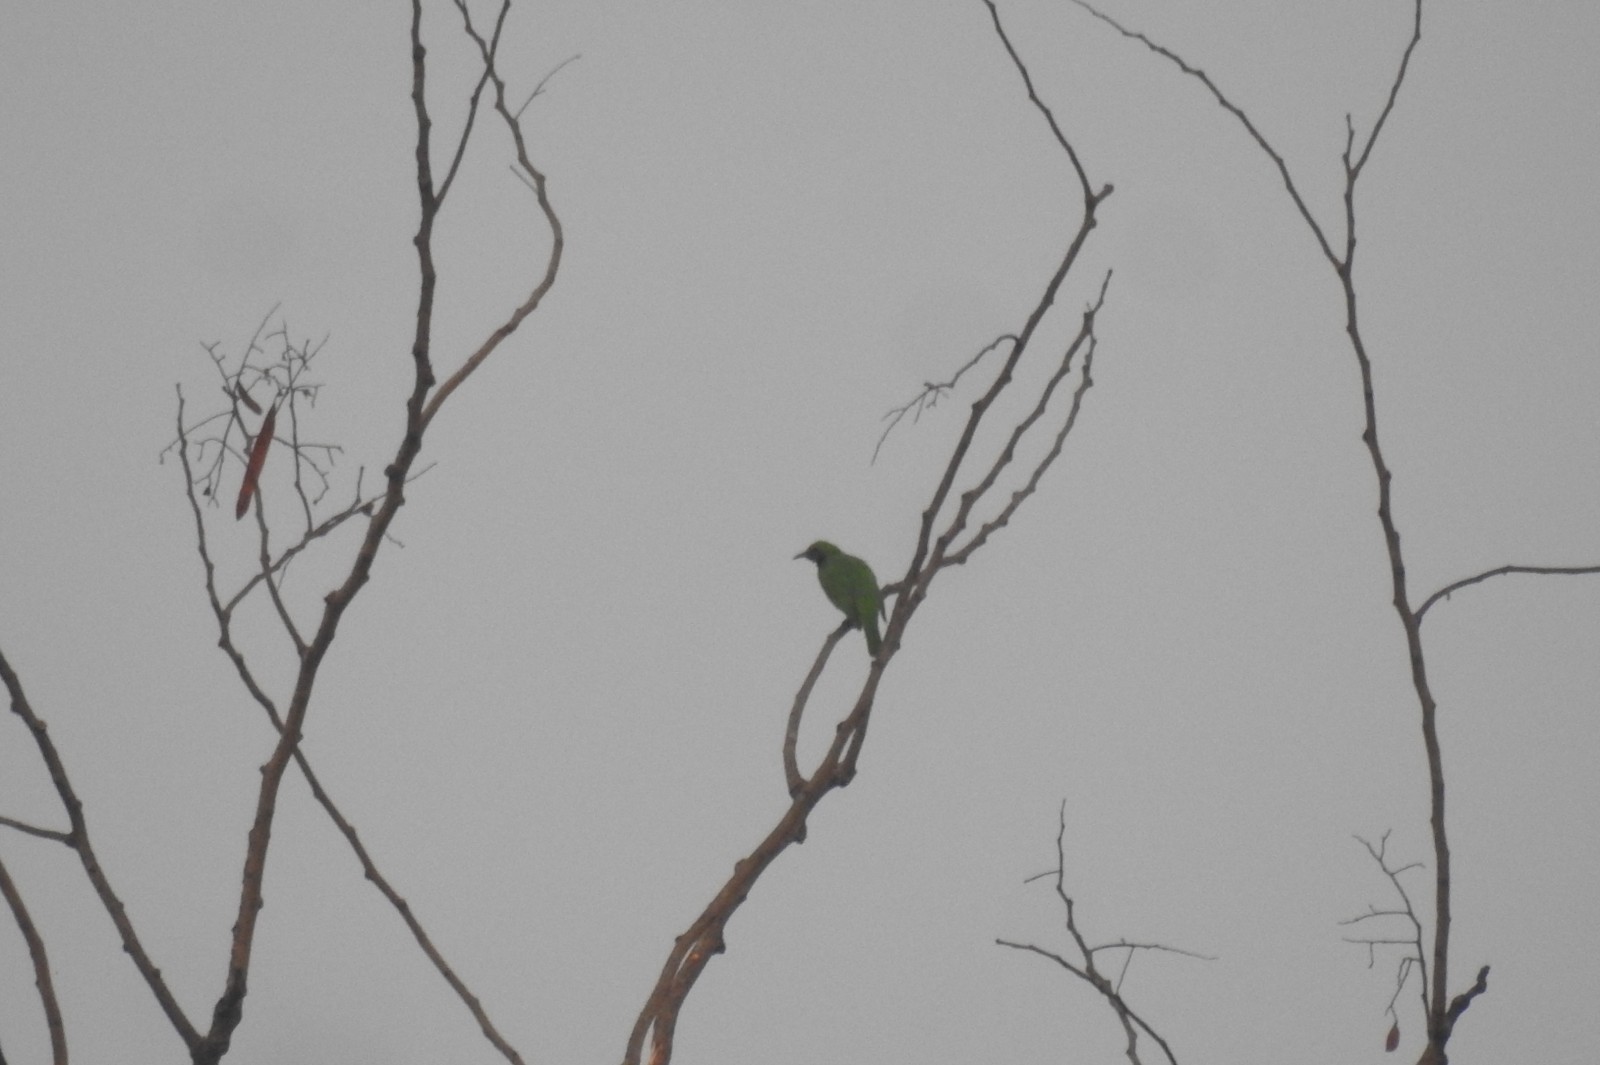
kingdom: Animalia
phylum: Chordata
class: Aves
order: Passeriformes
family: Chloropseidae
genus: Chloropsis
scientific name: Chloropsis aurifrons
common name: Golden-fronted leafbird
